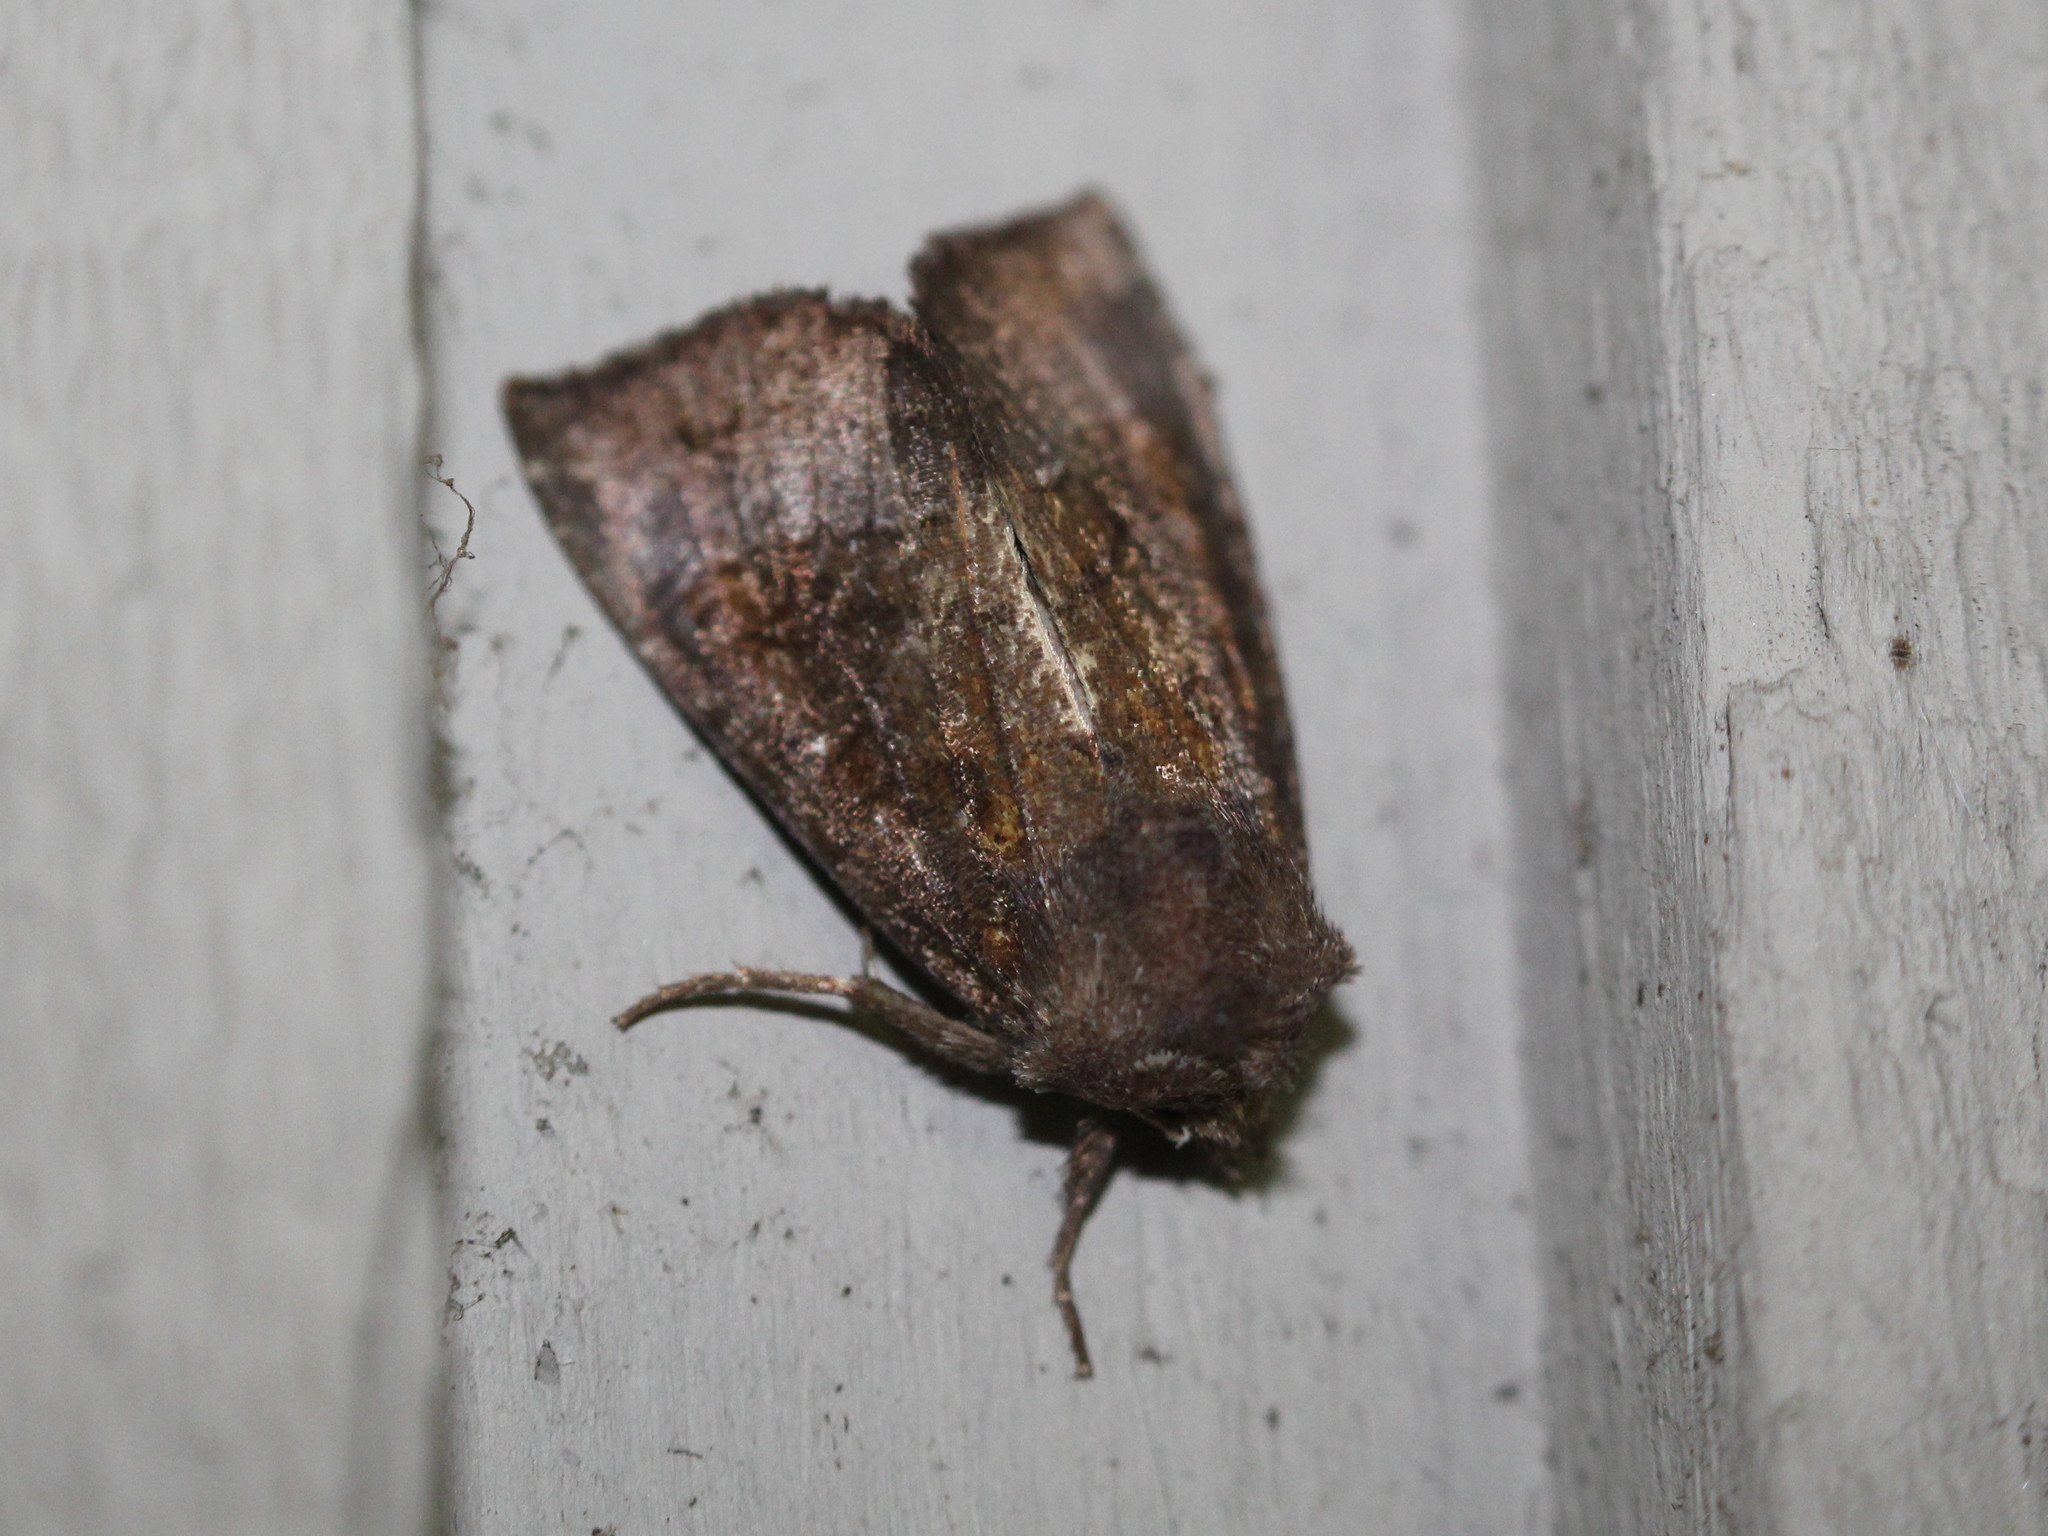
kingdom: Animalia
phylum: Arthropoda
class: Insecta
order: Lepidoptera
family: Noctuidae
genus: Papaipema
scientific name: Papaipema nelita
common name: Coneflower borer moth
